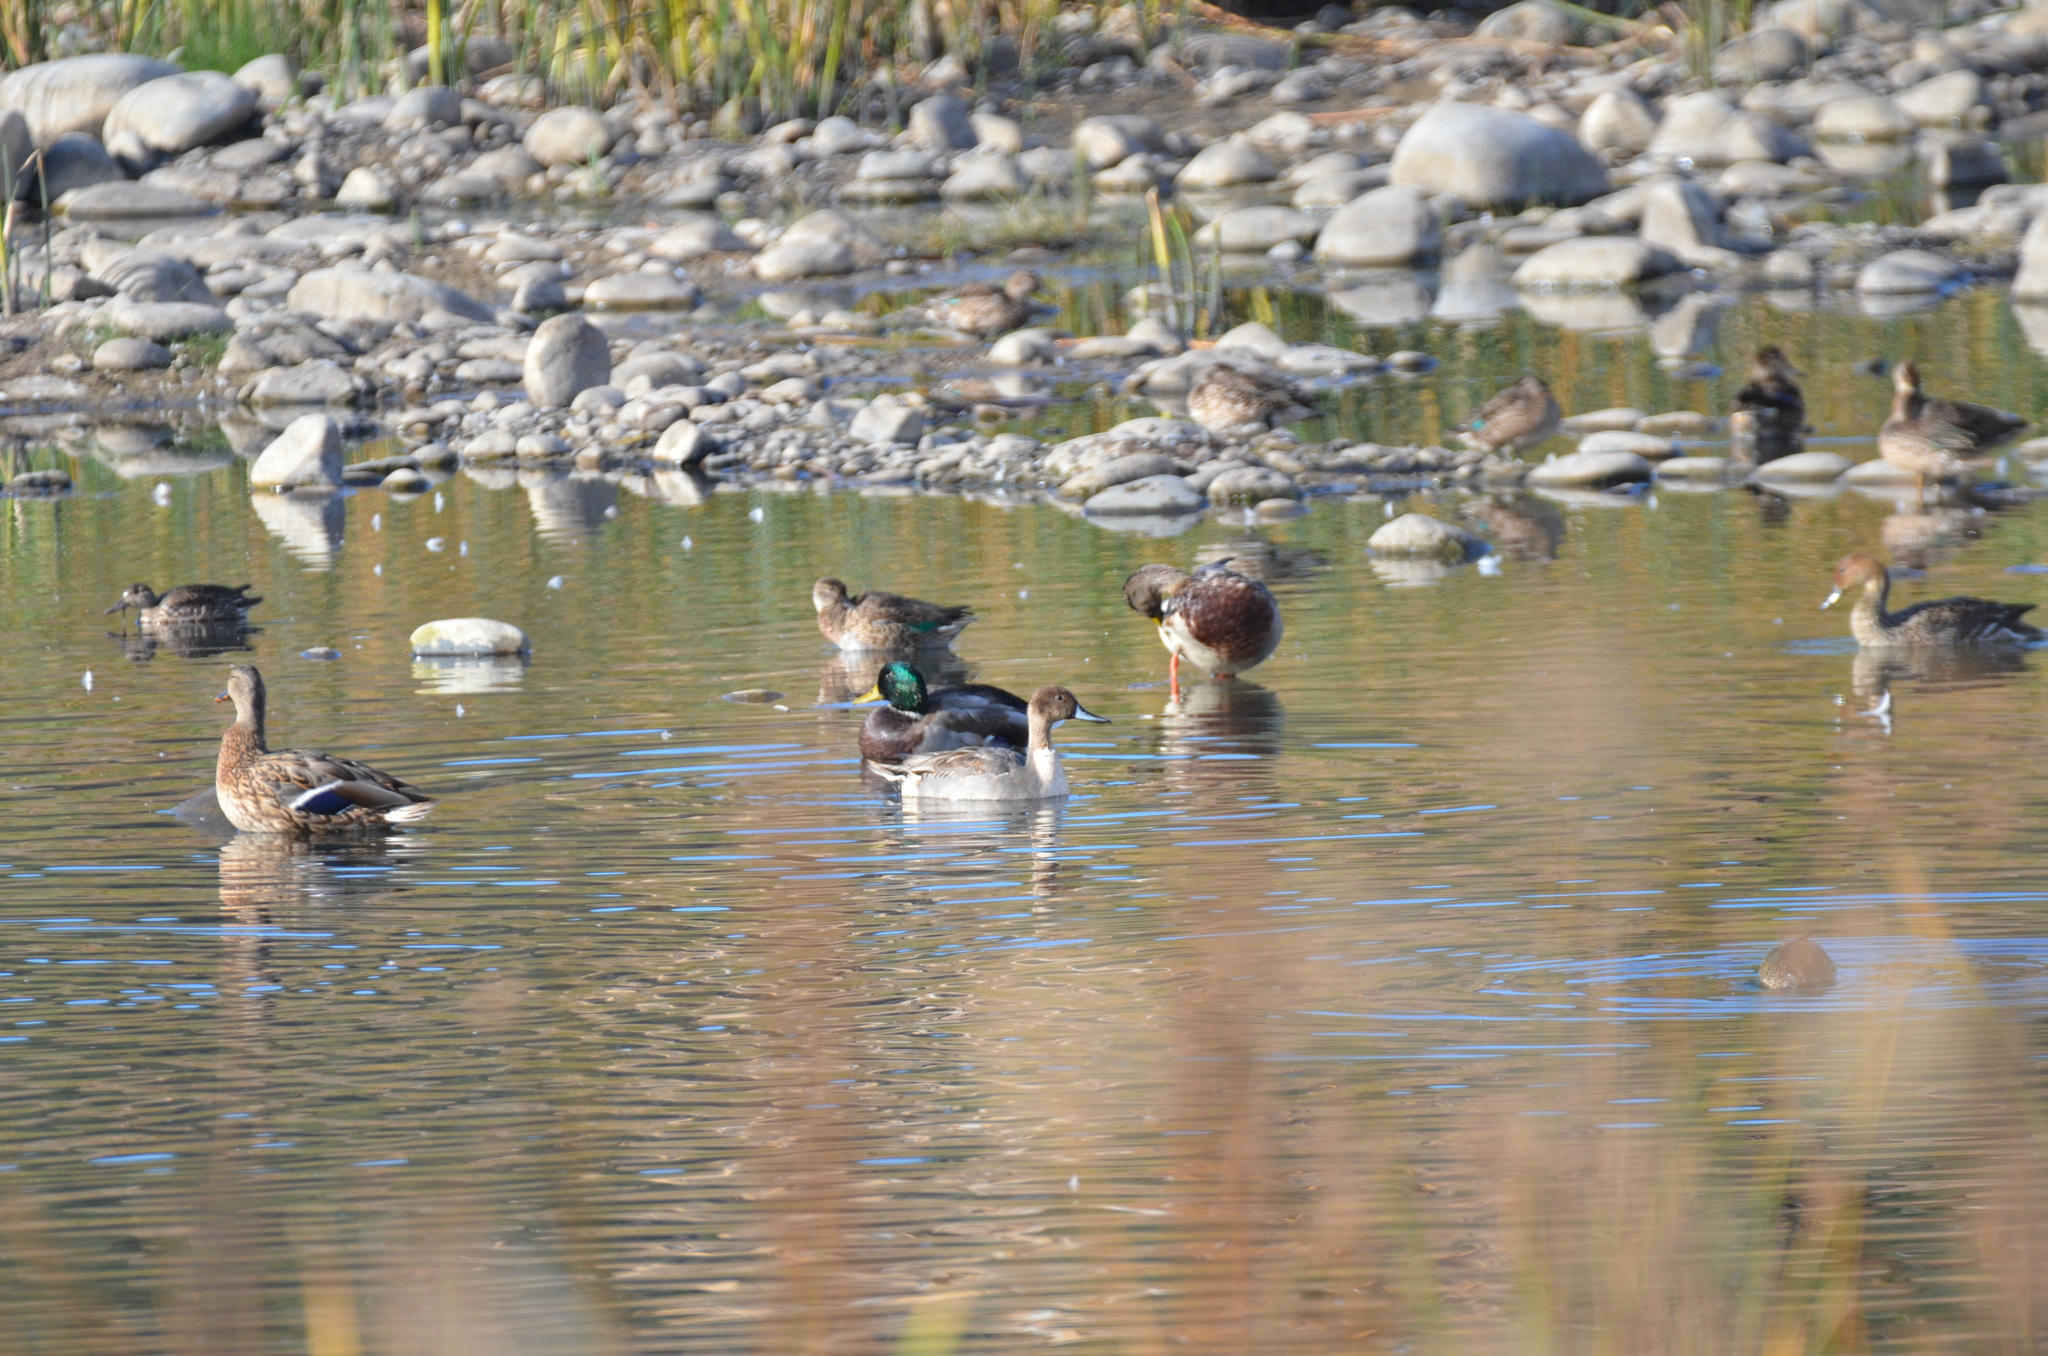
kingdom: Animalia
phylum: Chordata
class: Aves
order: Anseriformes
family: Anatidae
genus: Anas
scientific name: Anas acuta
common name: Northern pintail
